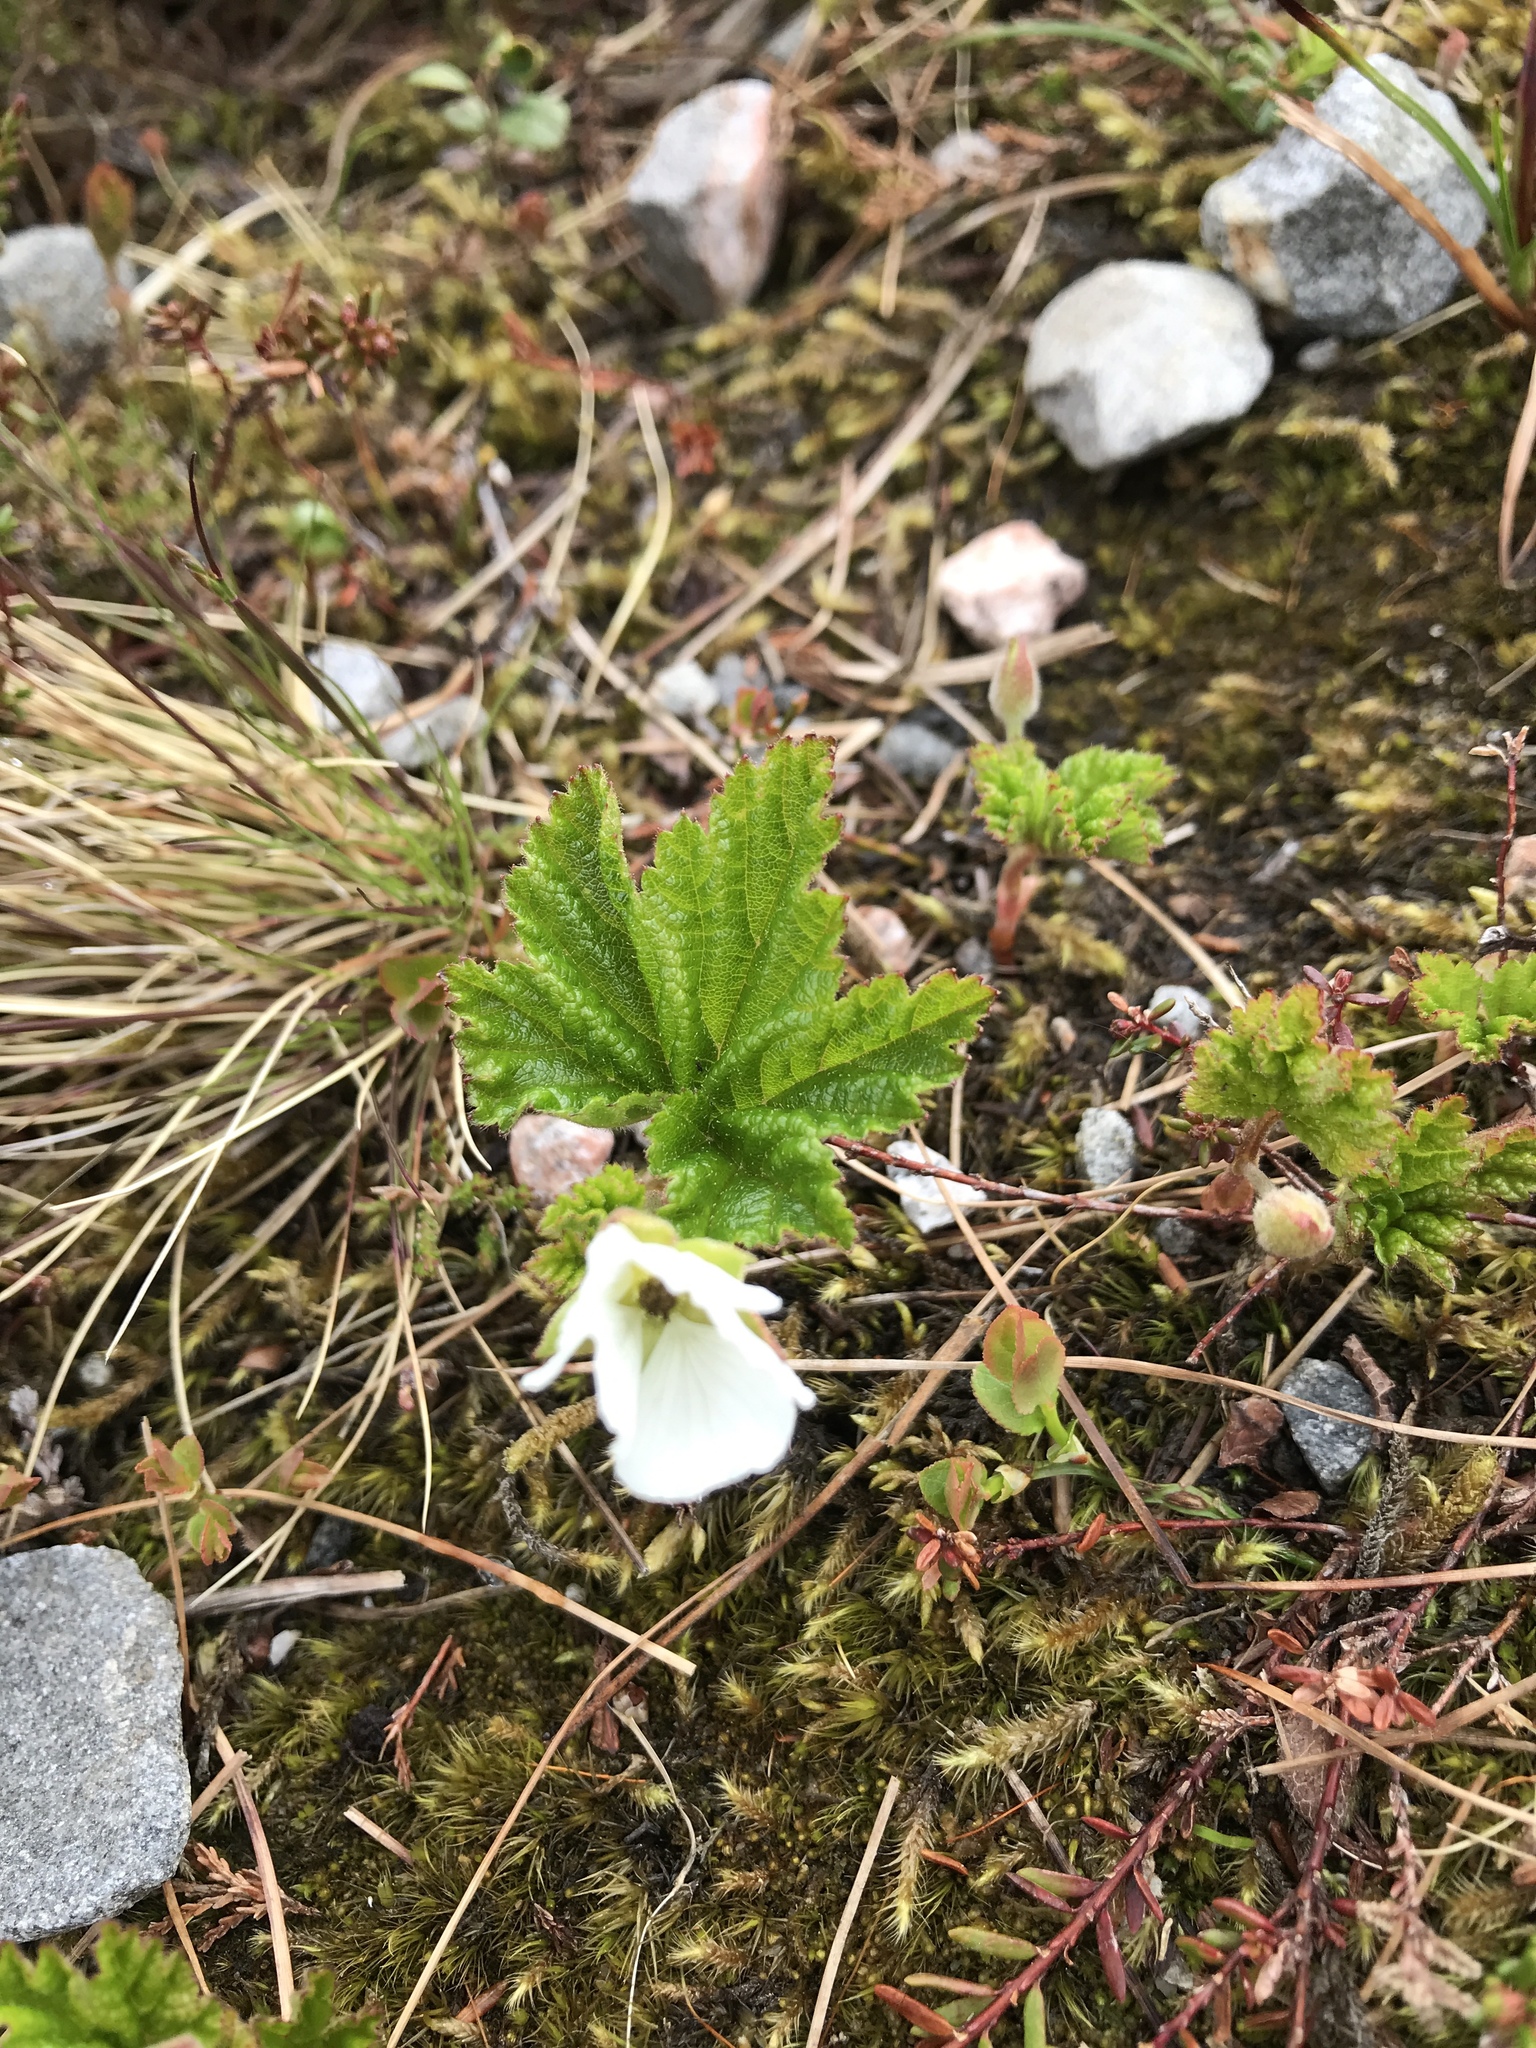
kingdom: Plantae
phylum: Tracheophyta
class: Magnoliopsida
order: Rosales
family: Rosaceae
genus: Rubus
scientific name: Rubus chamaemorus
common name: Cloudberry
